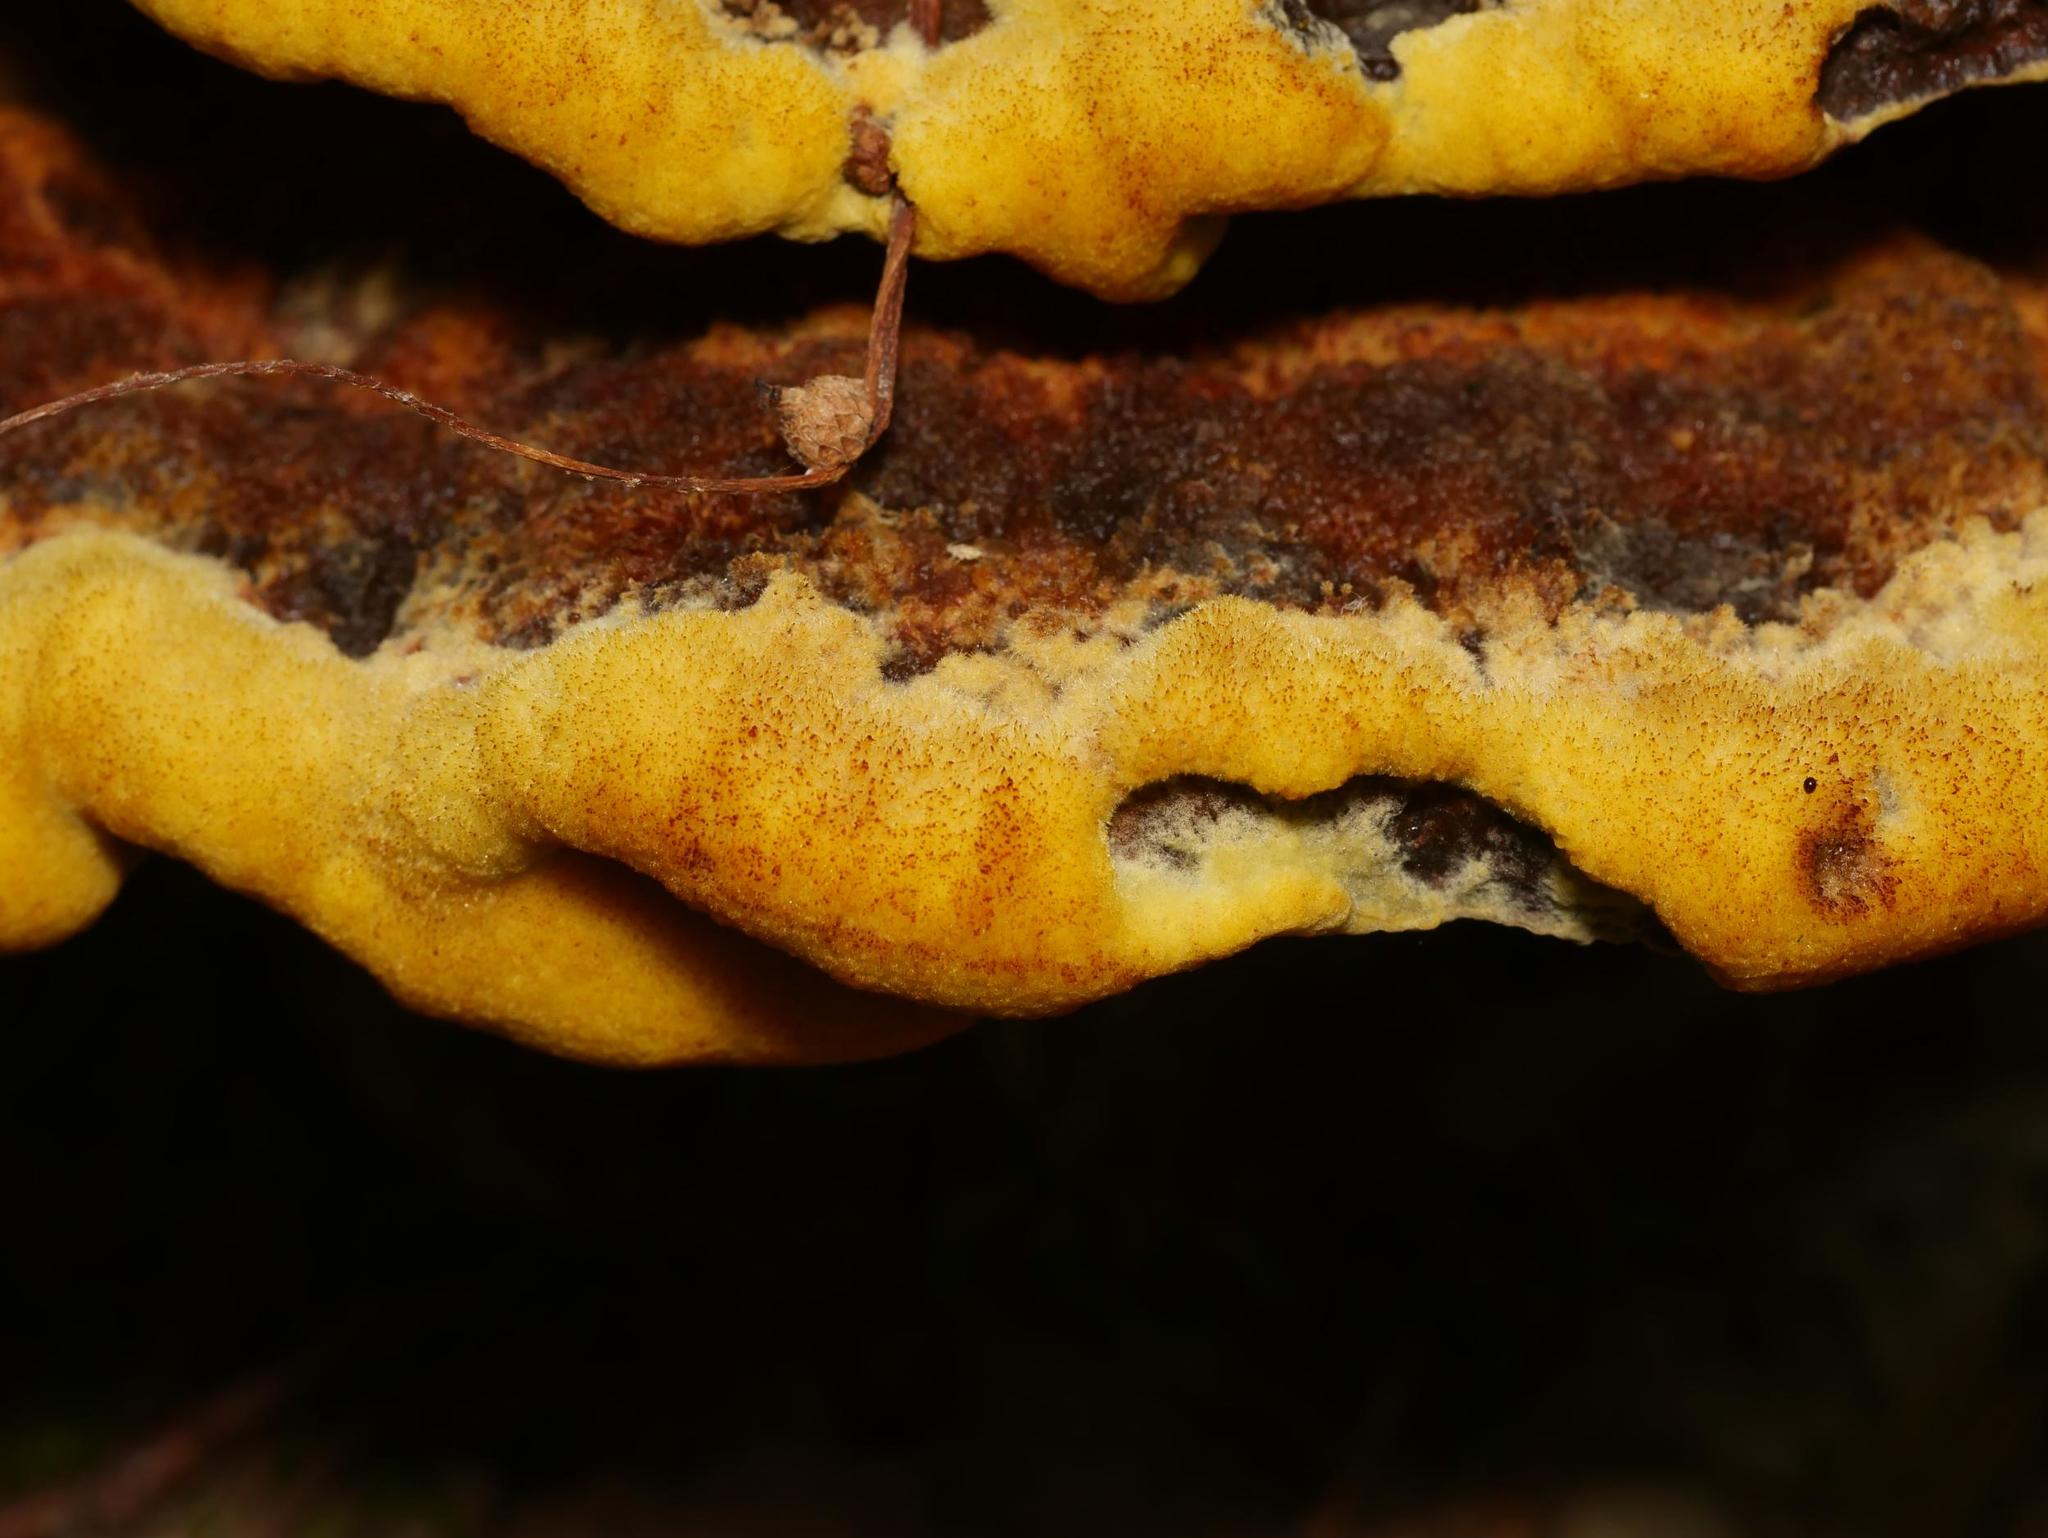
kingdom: Fungi
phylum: Basidiomycota
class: Agaricomycetes
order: Polyporales
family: Laetiporaceae
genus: Phaeolus
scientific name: Phaeolus schweinitzii
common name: Dyer's mazegill
